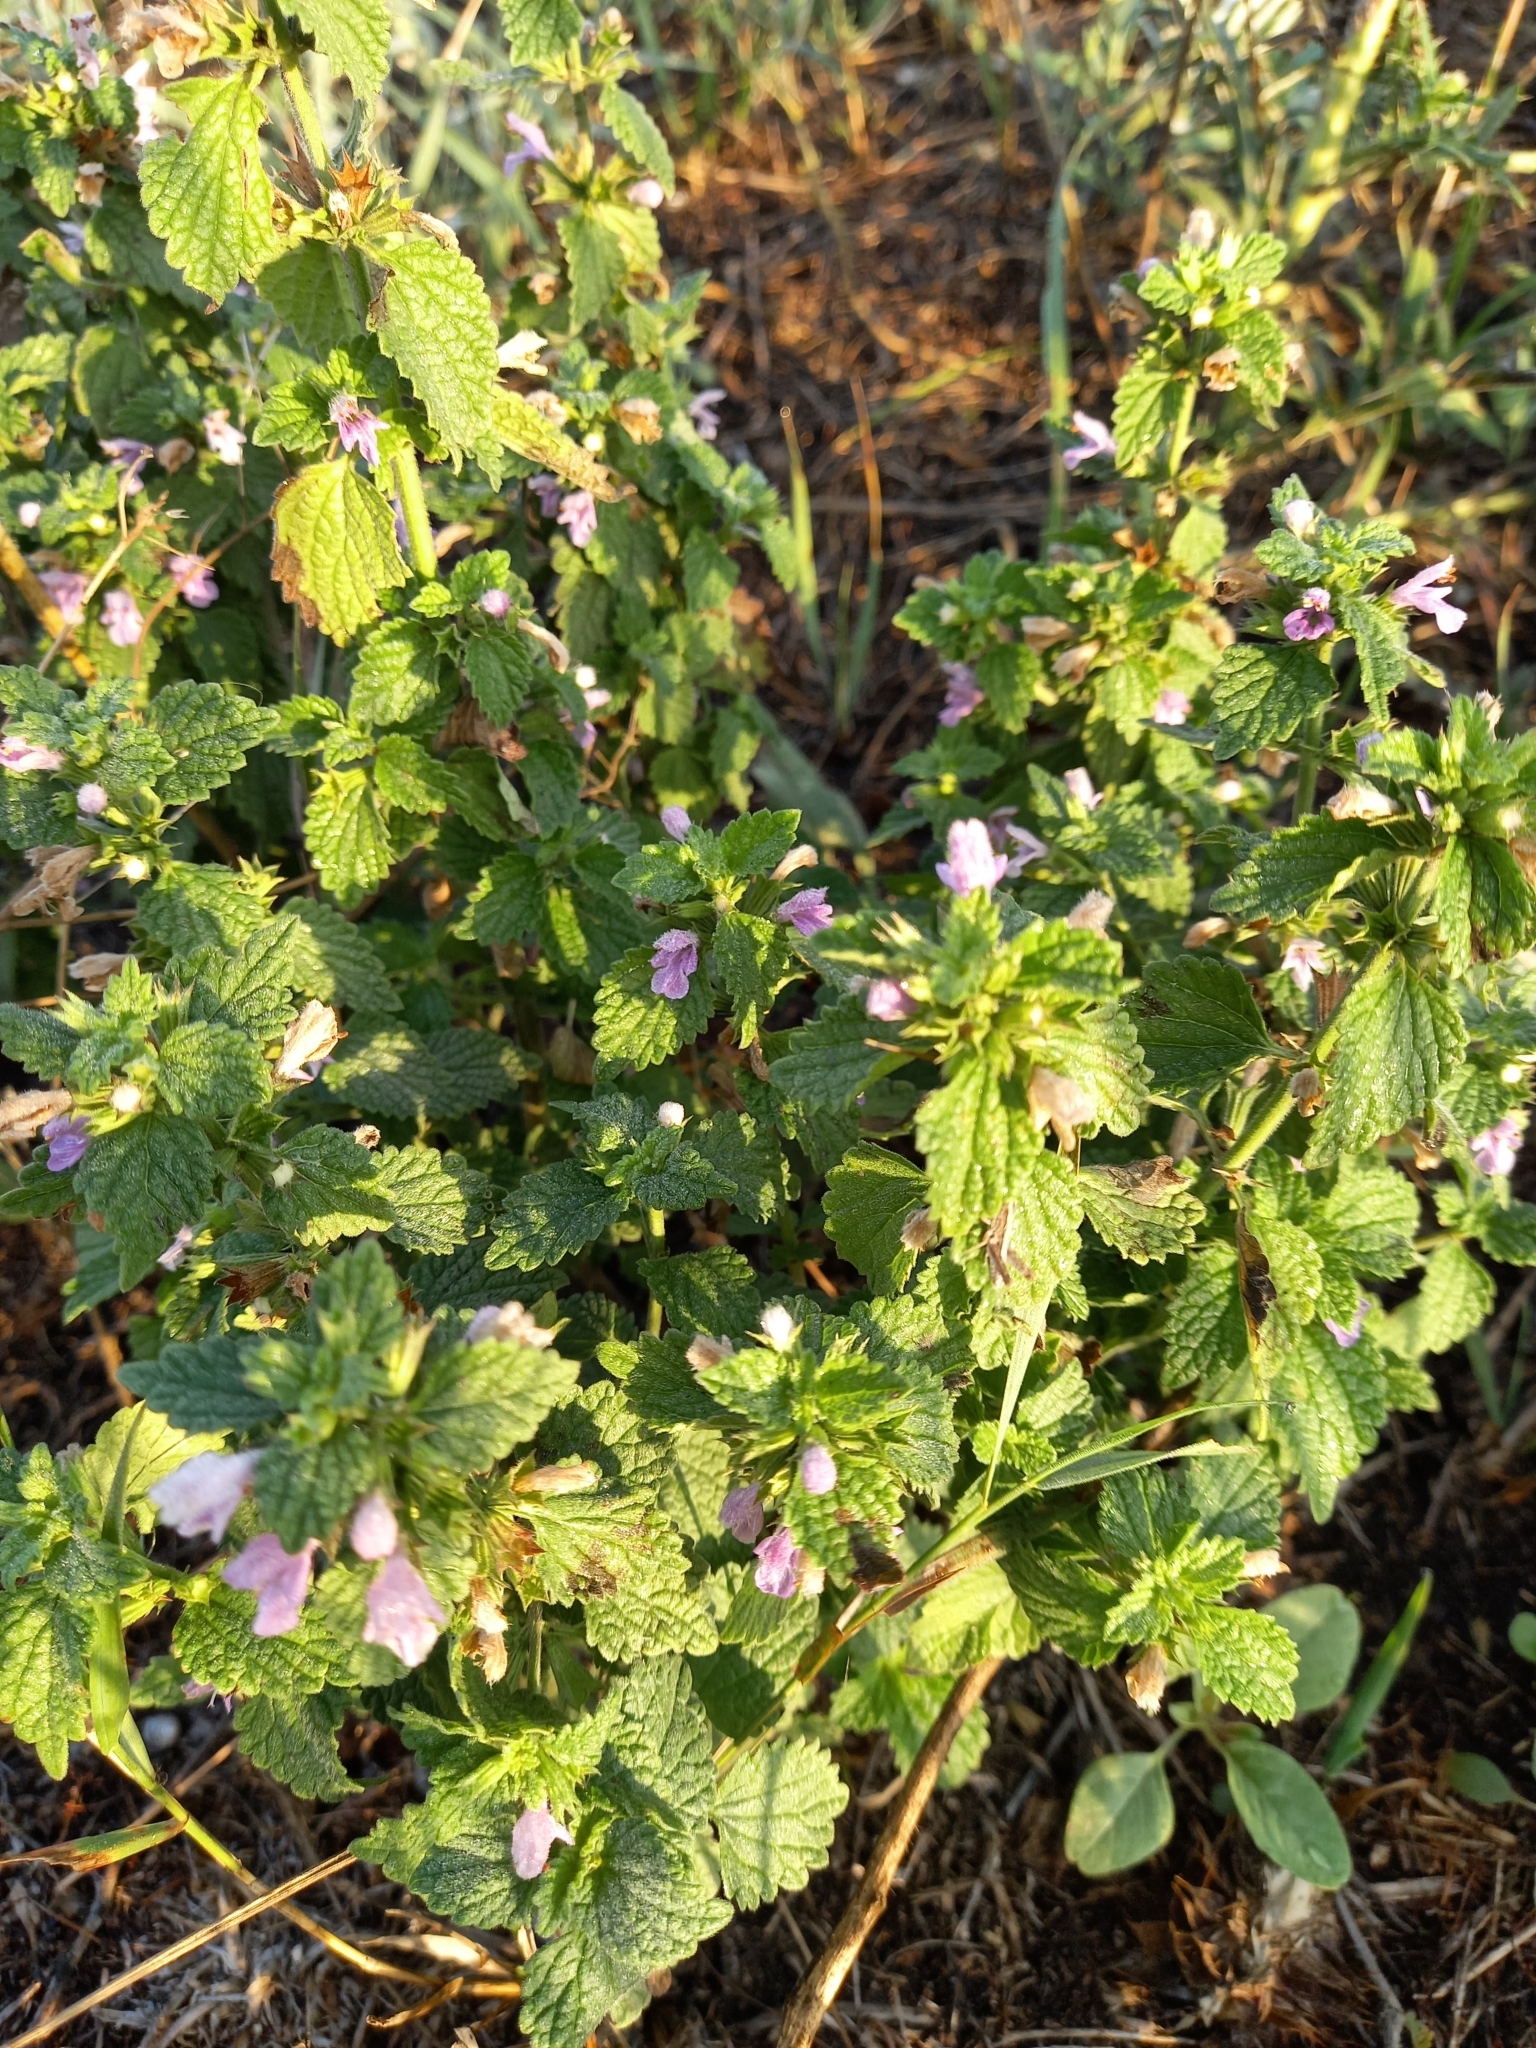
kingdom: Plantae
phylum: Tracheophyta
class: Magnoliopsida
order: Lamiales
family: Lamiaceae
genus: Ballota
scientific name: Ballota nigra
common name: Black horehound
